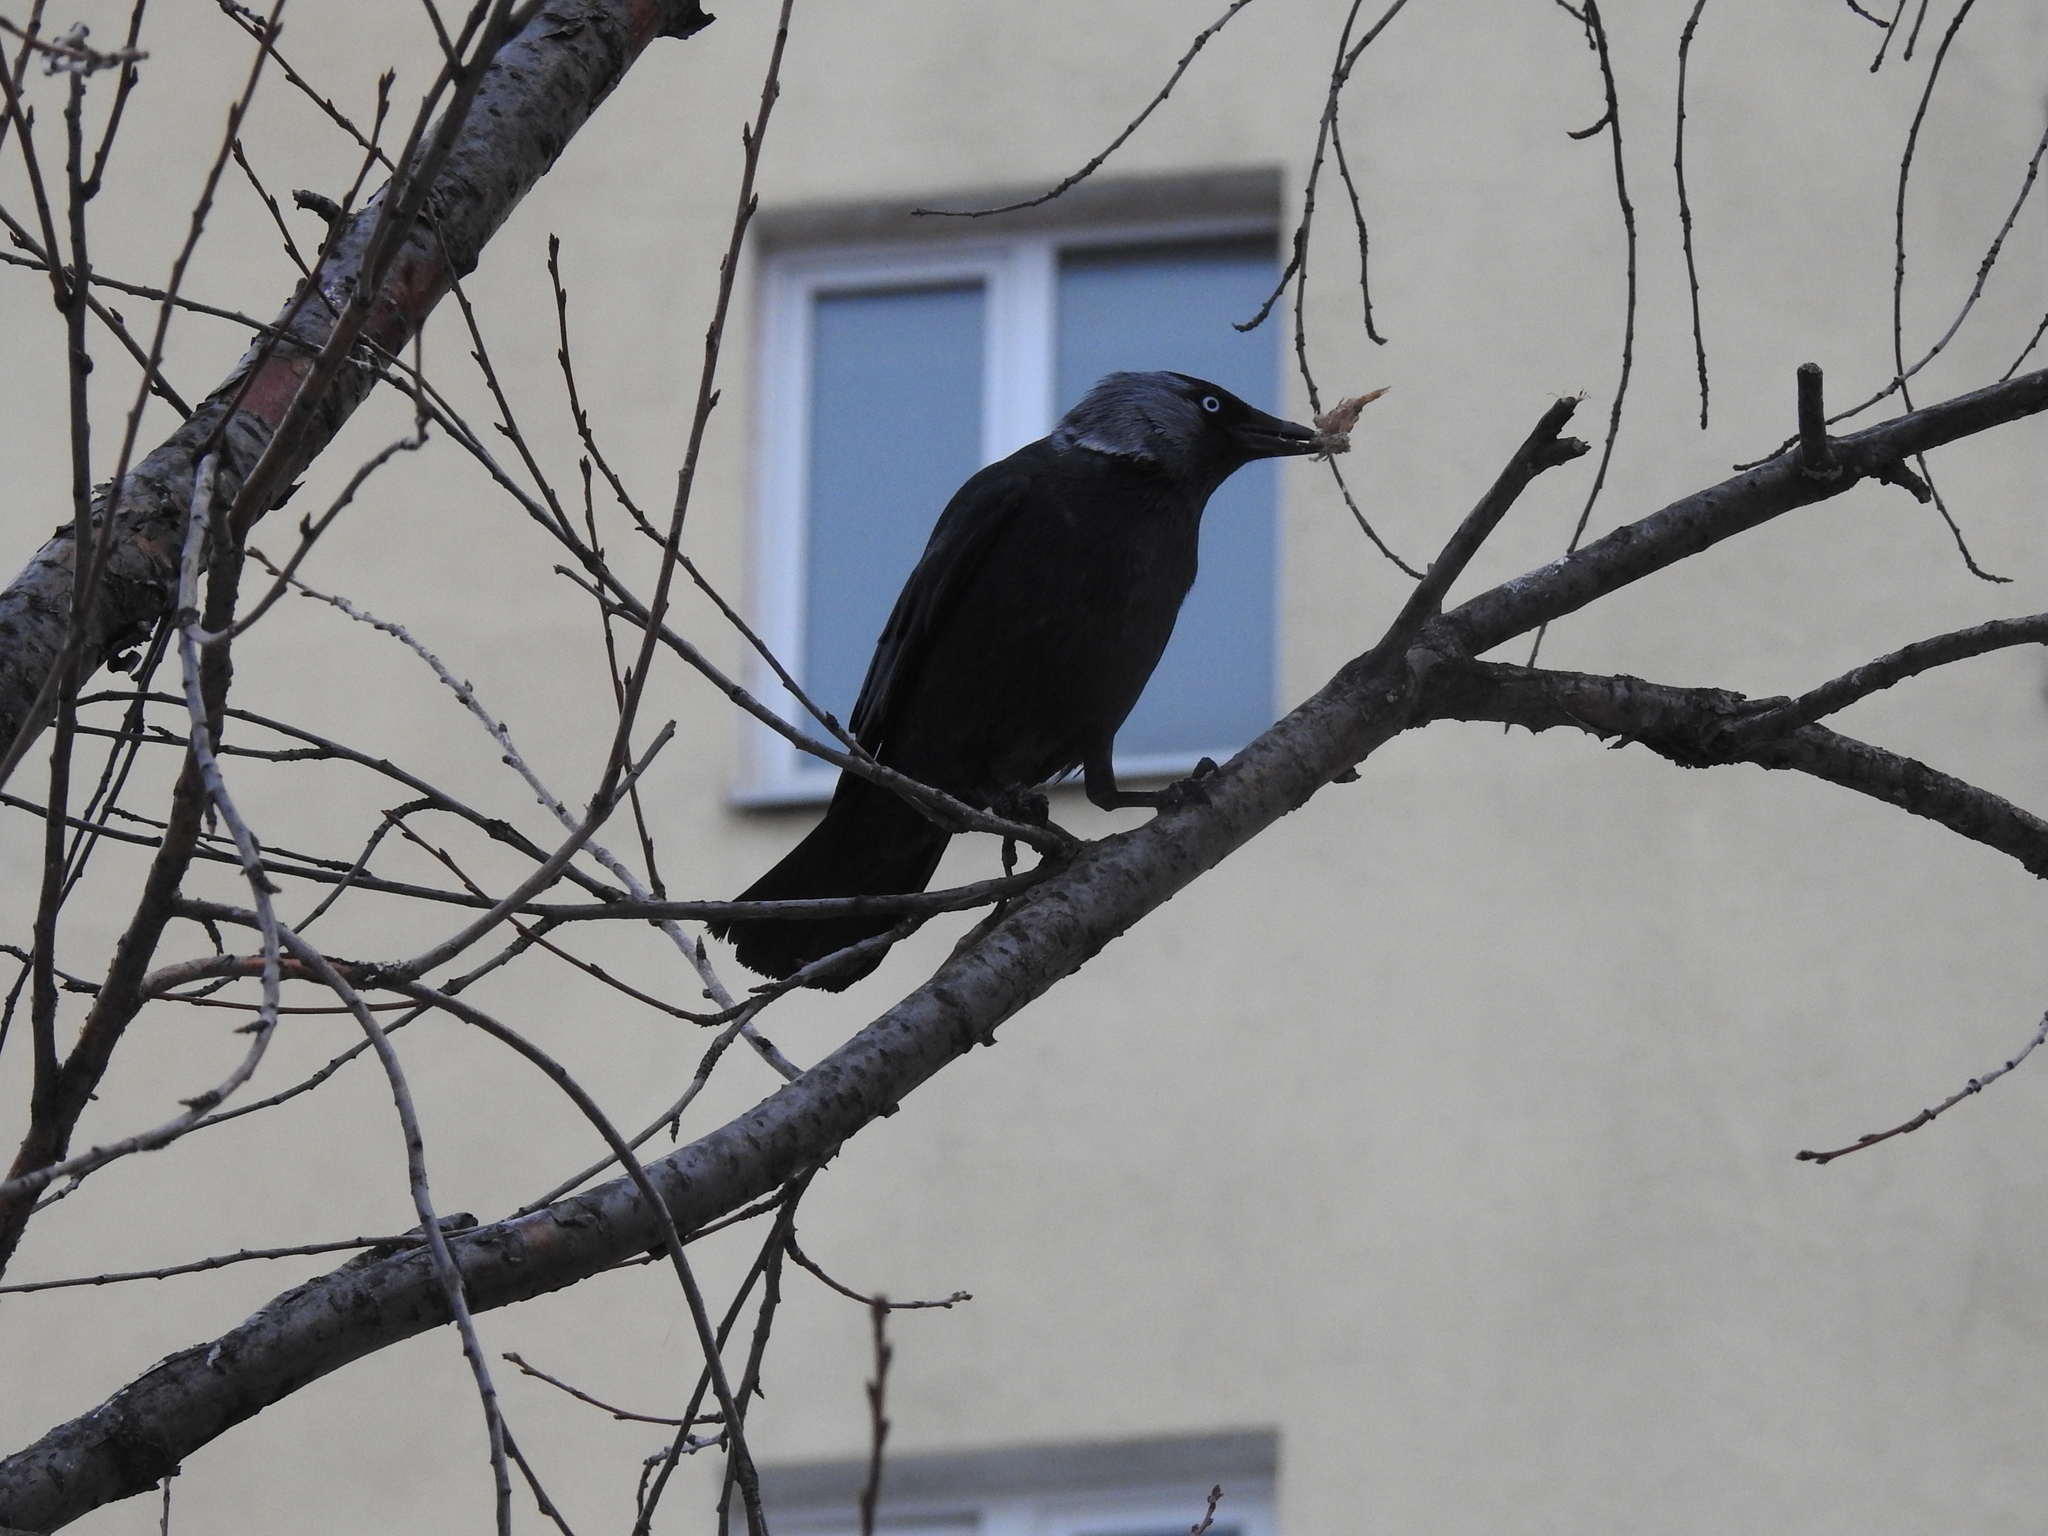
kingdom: Animalia
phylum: Chordata
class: Aves
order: Passeriformes
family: Corvidae
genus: Coloeus
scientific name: Coloeus monedula
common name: Western jackdaw
